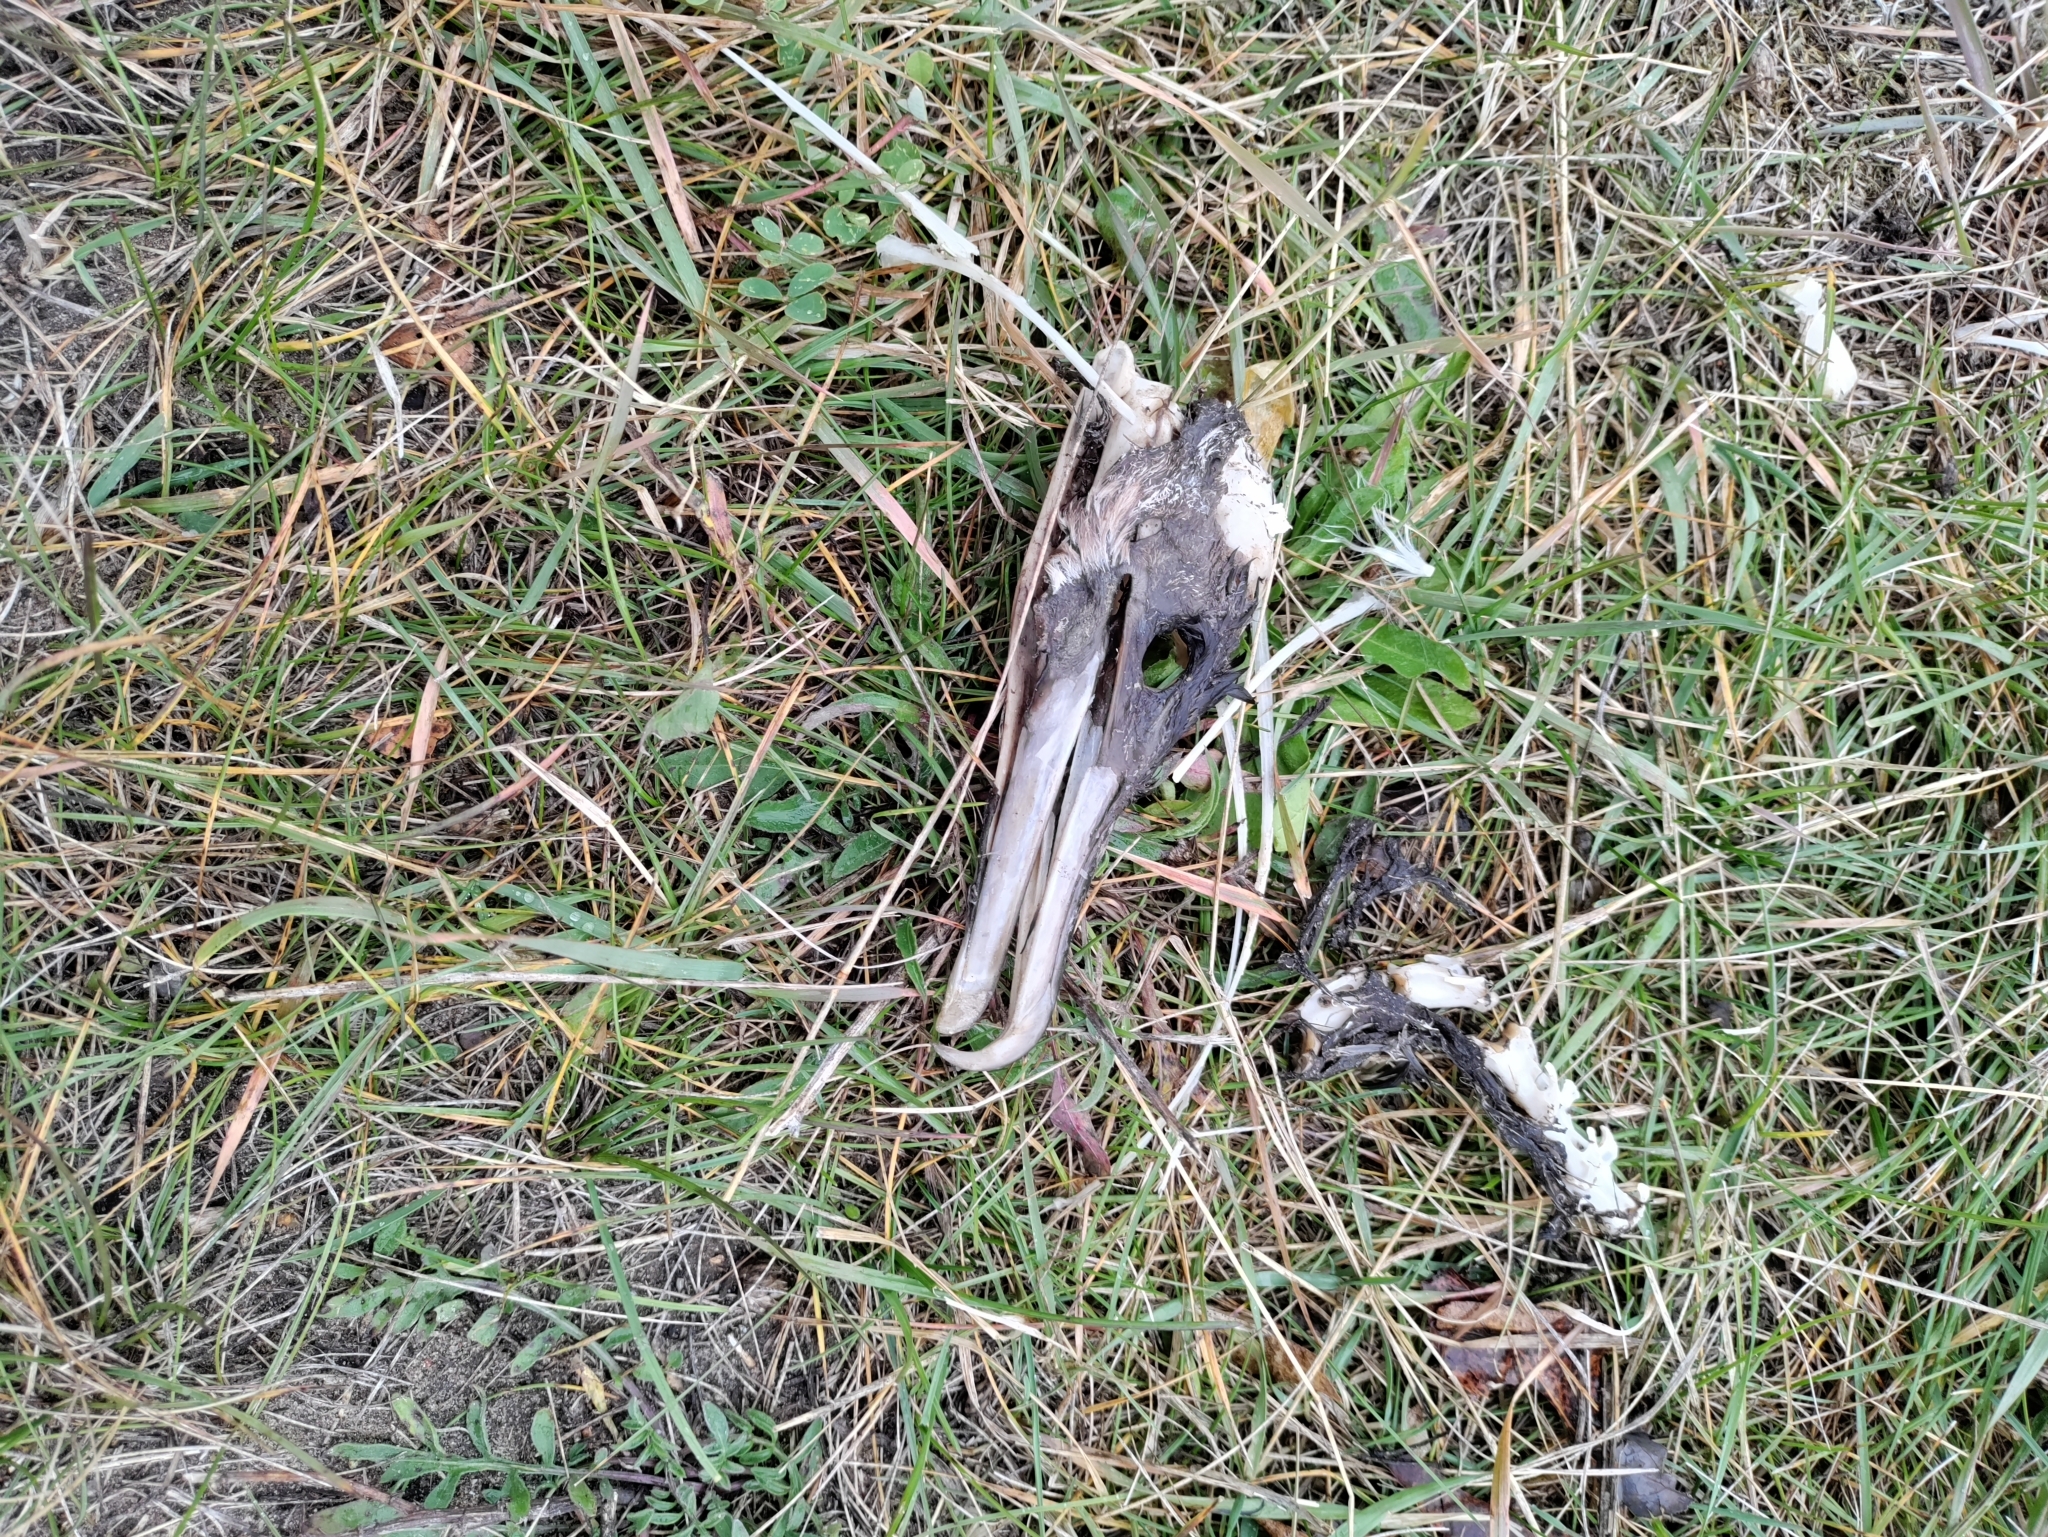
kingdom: Animalia
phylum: Chordata
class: Aves
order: Suliformes
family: Phalacrocoracidae
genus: Phalacrocorax
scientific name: Phalacrocorax auritus
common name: Double-crested cormorant
